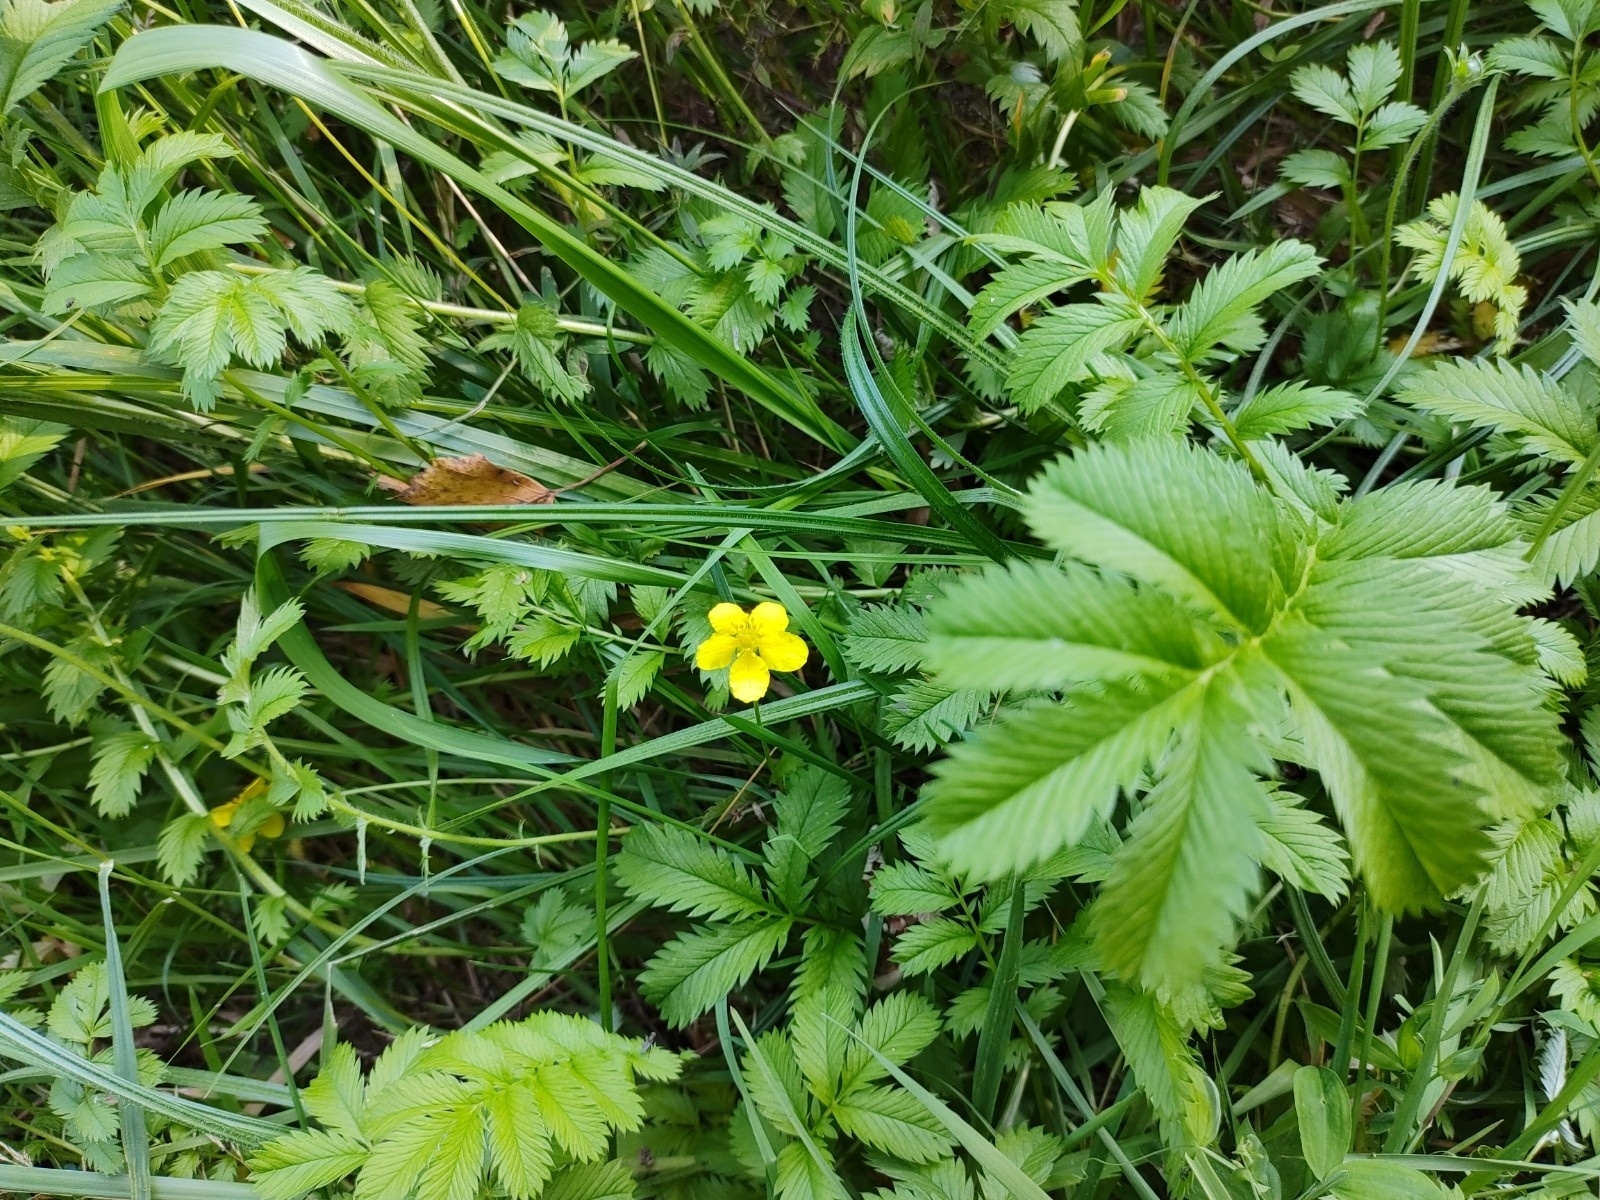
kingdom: Plantae
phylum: Tracheophyta
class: Magnoliopsida
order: Rosales
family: Rosaceae
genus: Argentina
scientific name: Argentina anserina
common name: Common silverweed
